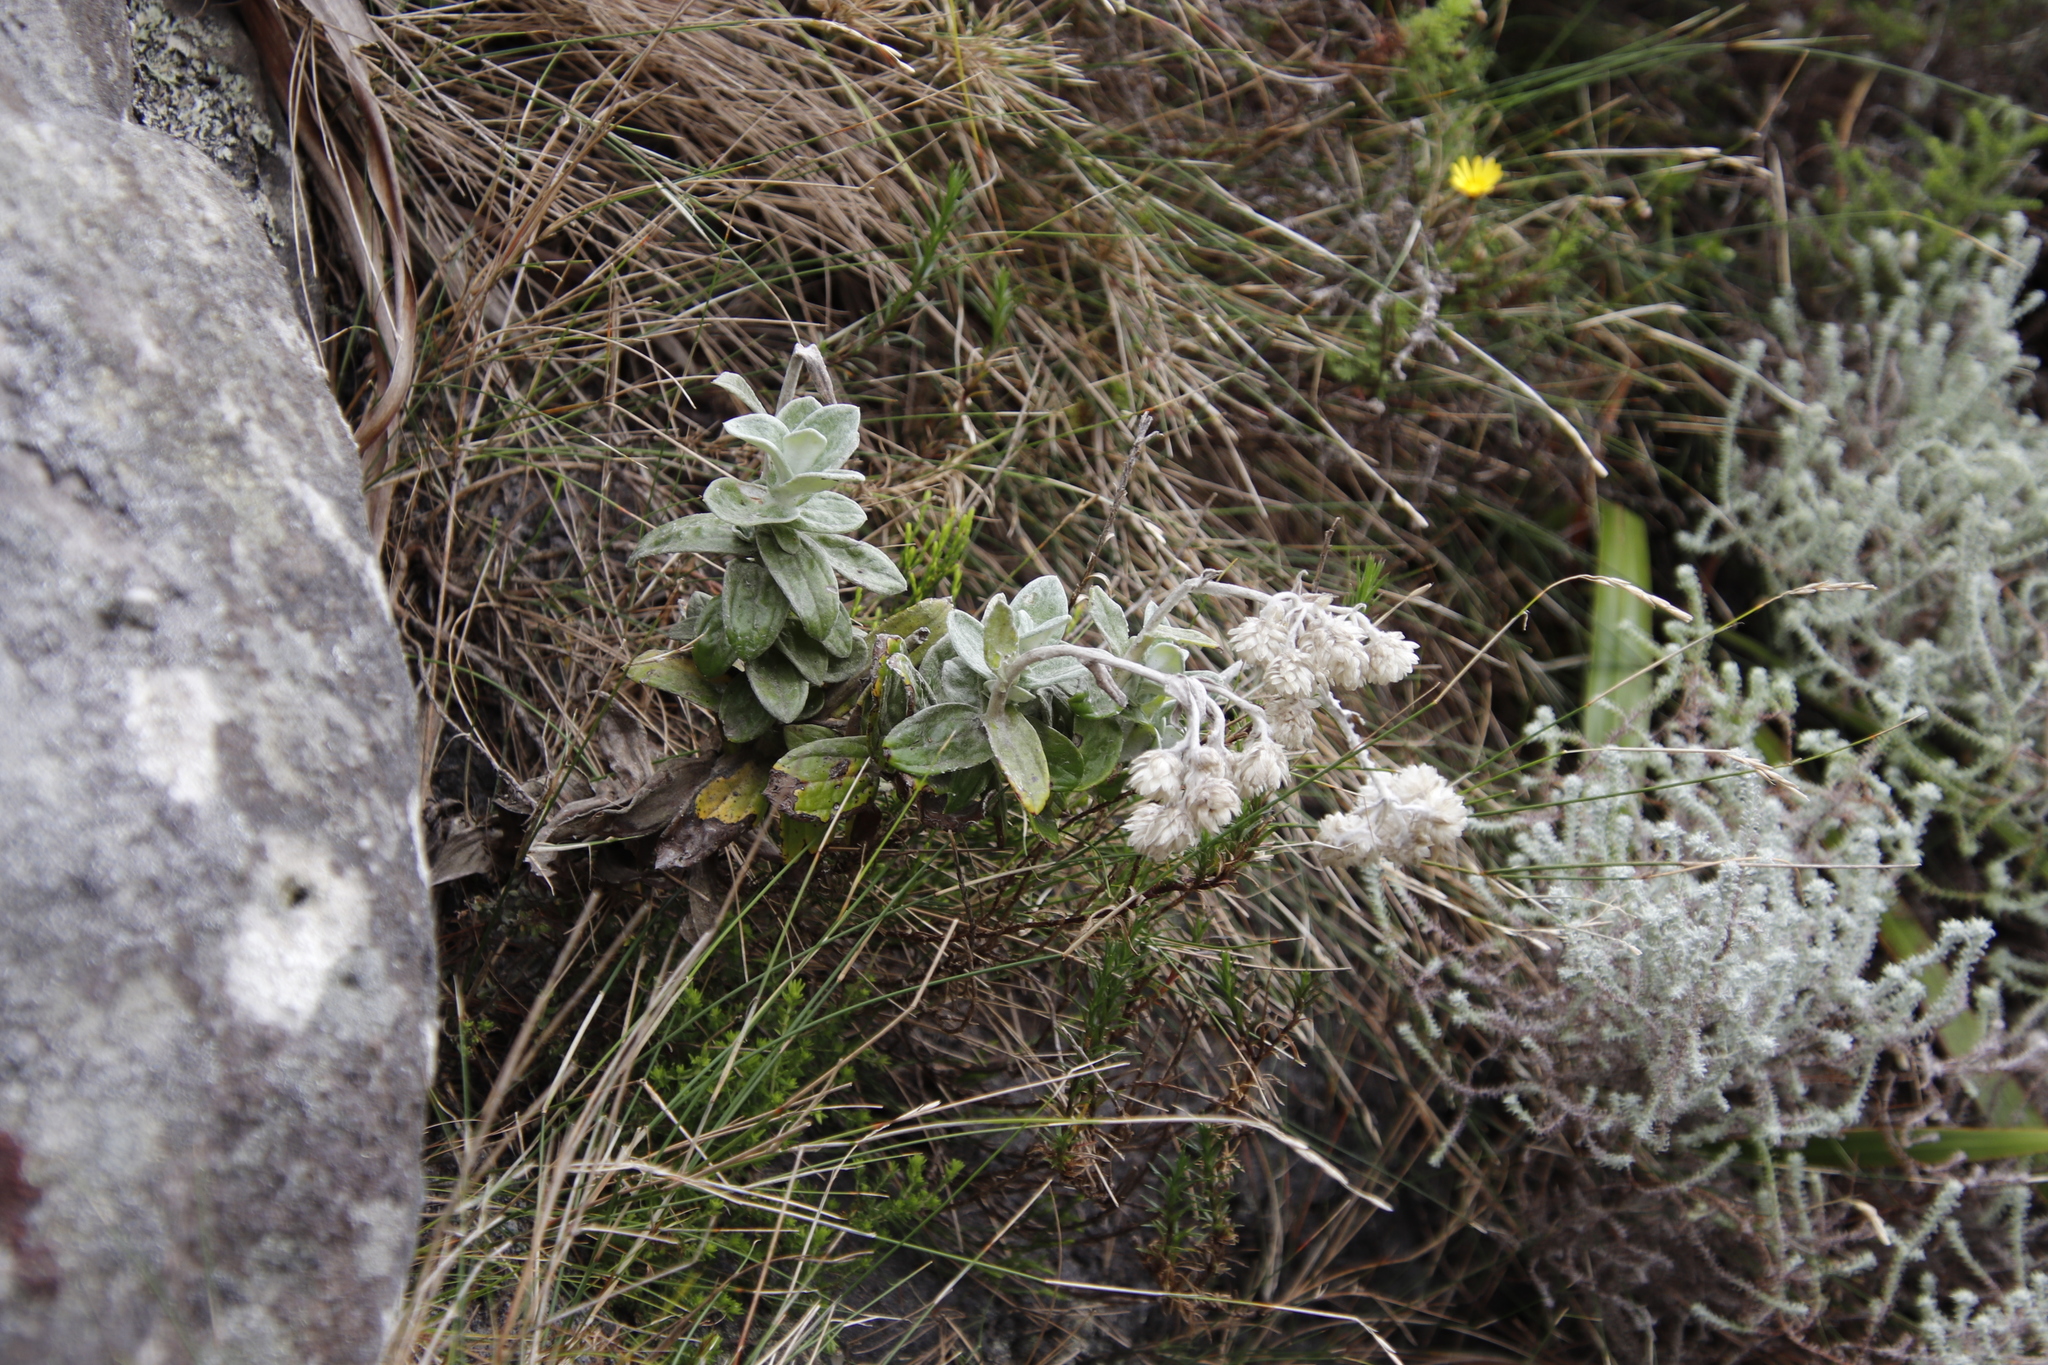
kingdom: Plantae
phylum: Tracheophyta
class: Magnoliopsida
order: Asterales
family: Asteraceae
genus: Helichrysum
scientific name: Helichrysum fruticans
